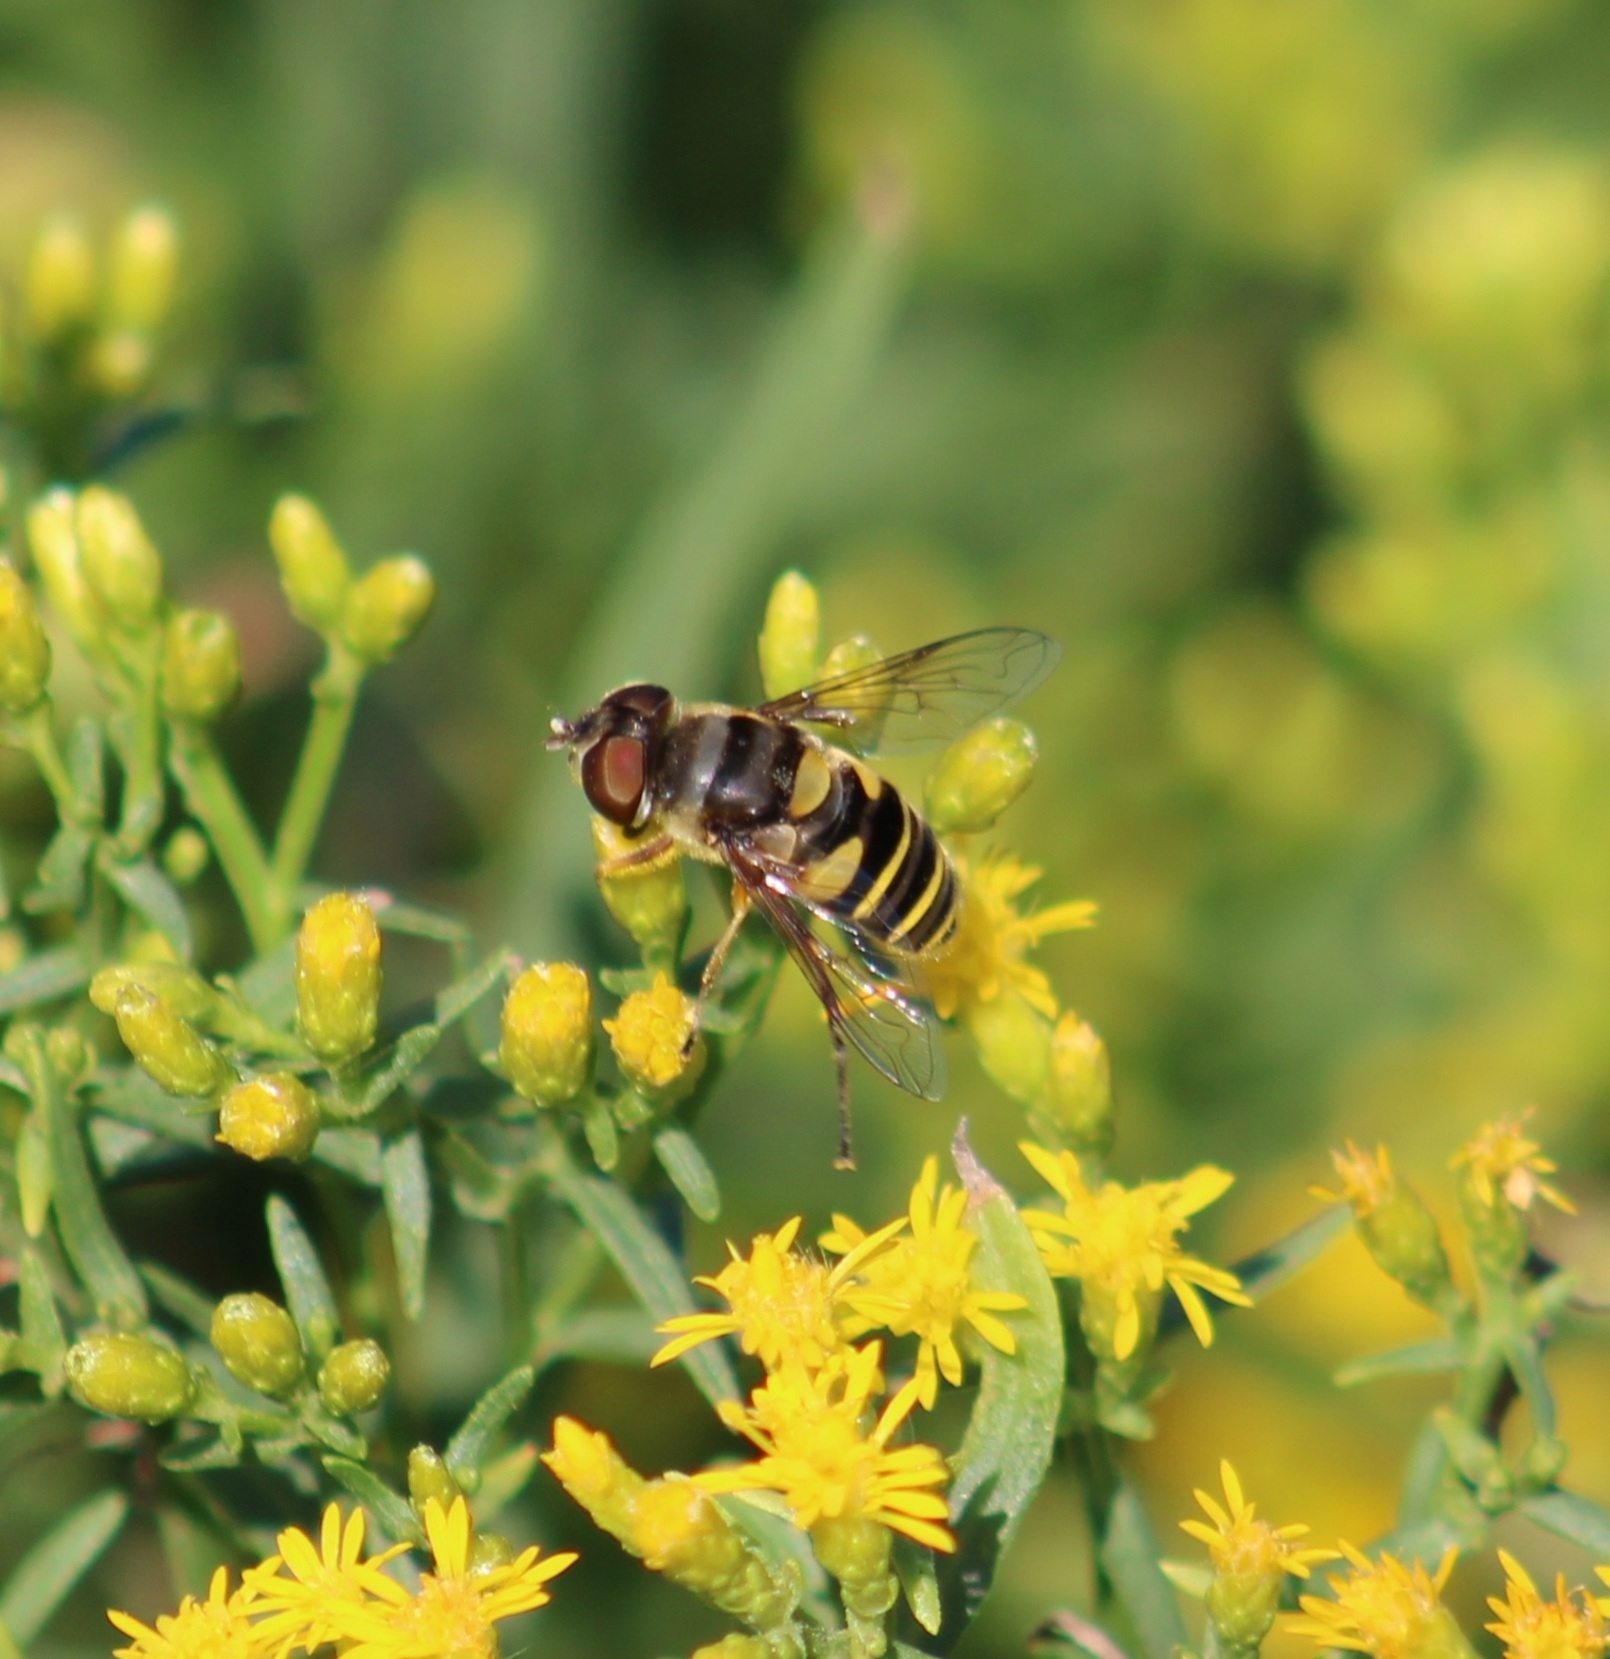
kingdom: Animalia
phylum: Arthropoda
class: Insecta
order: Diptera
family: Syrphidae
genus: Eristalis
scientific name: Eristalis transversa
